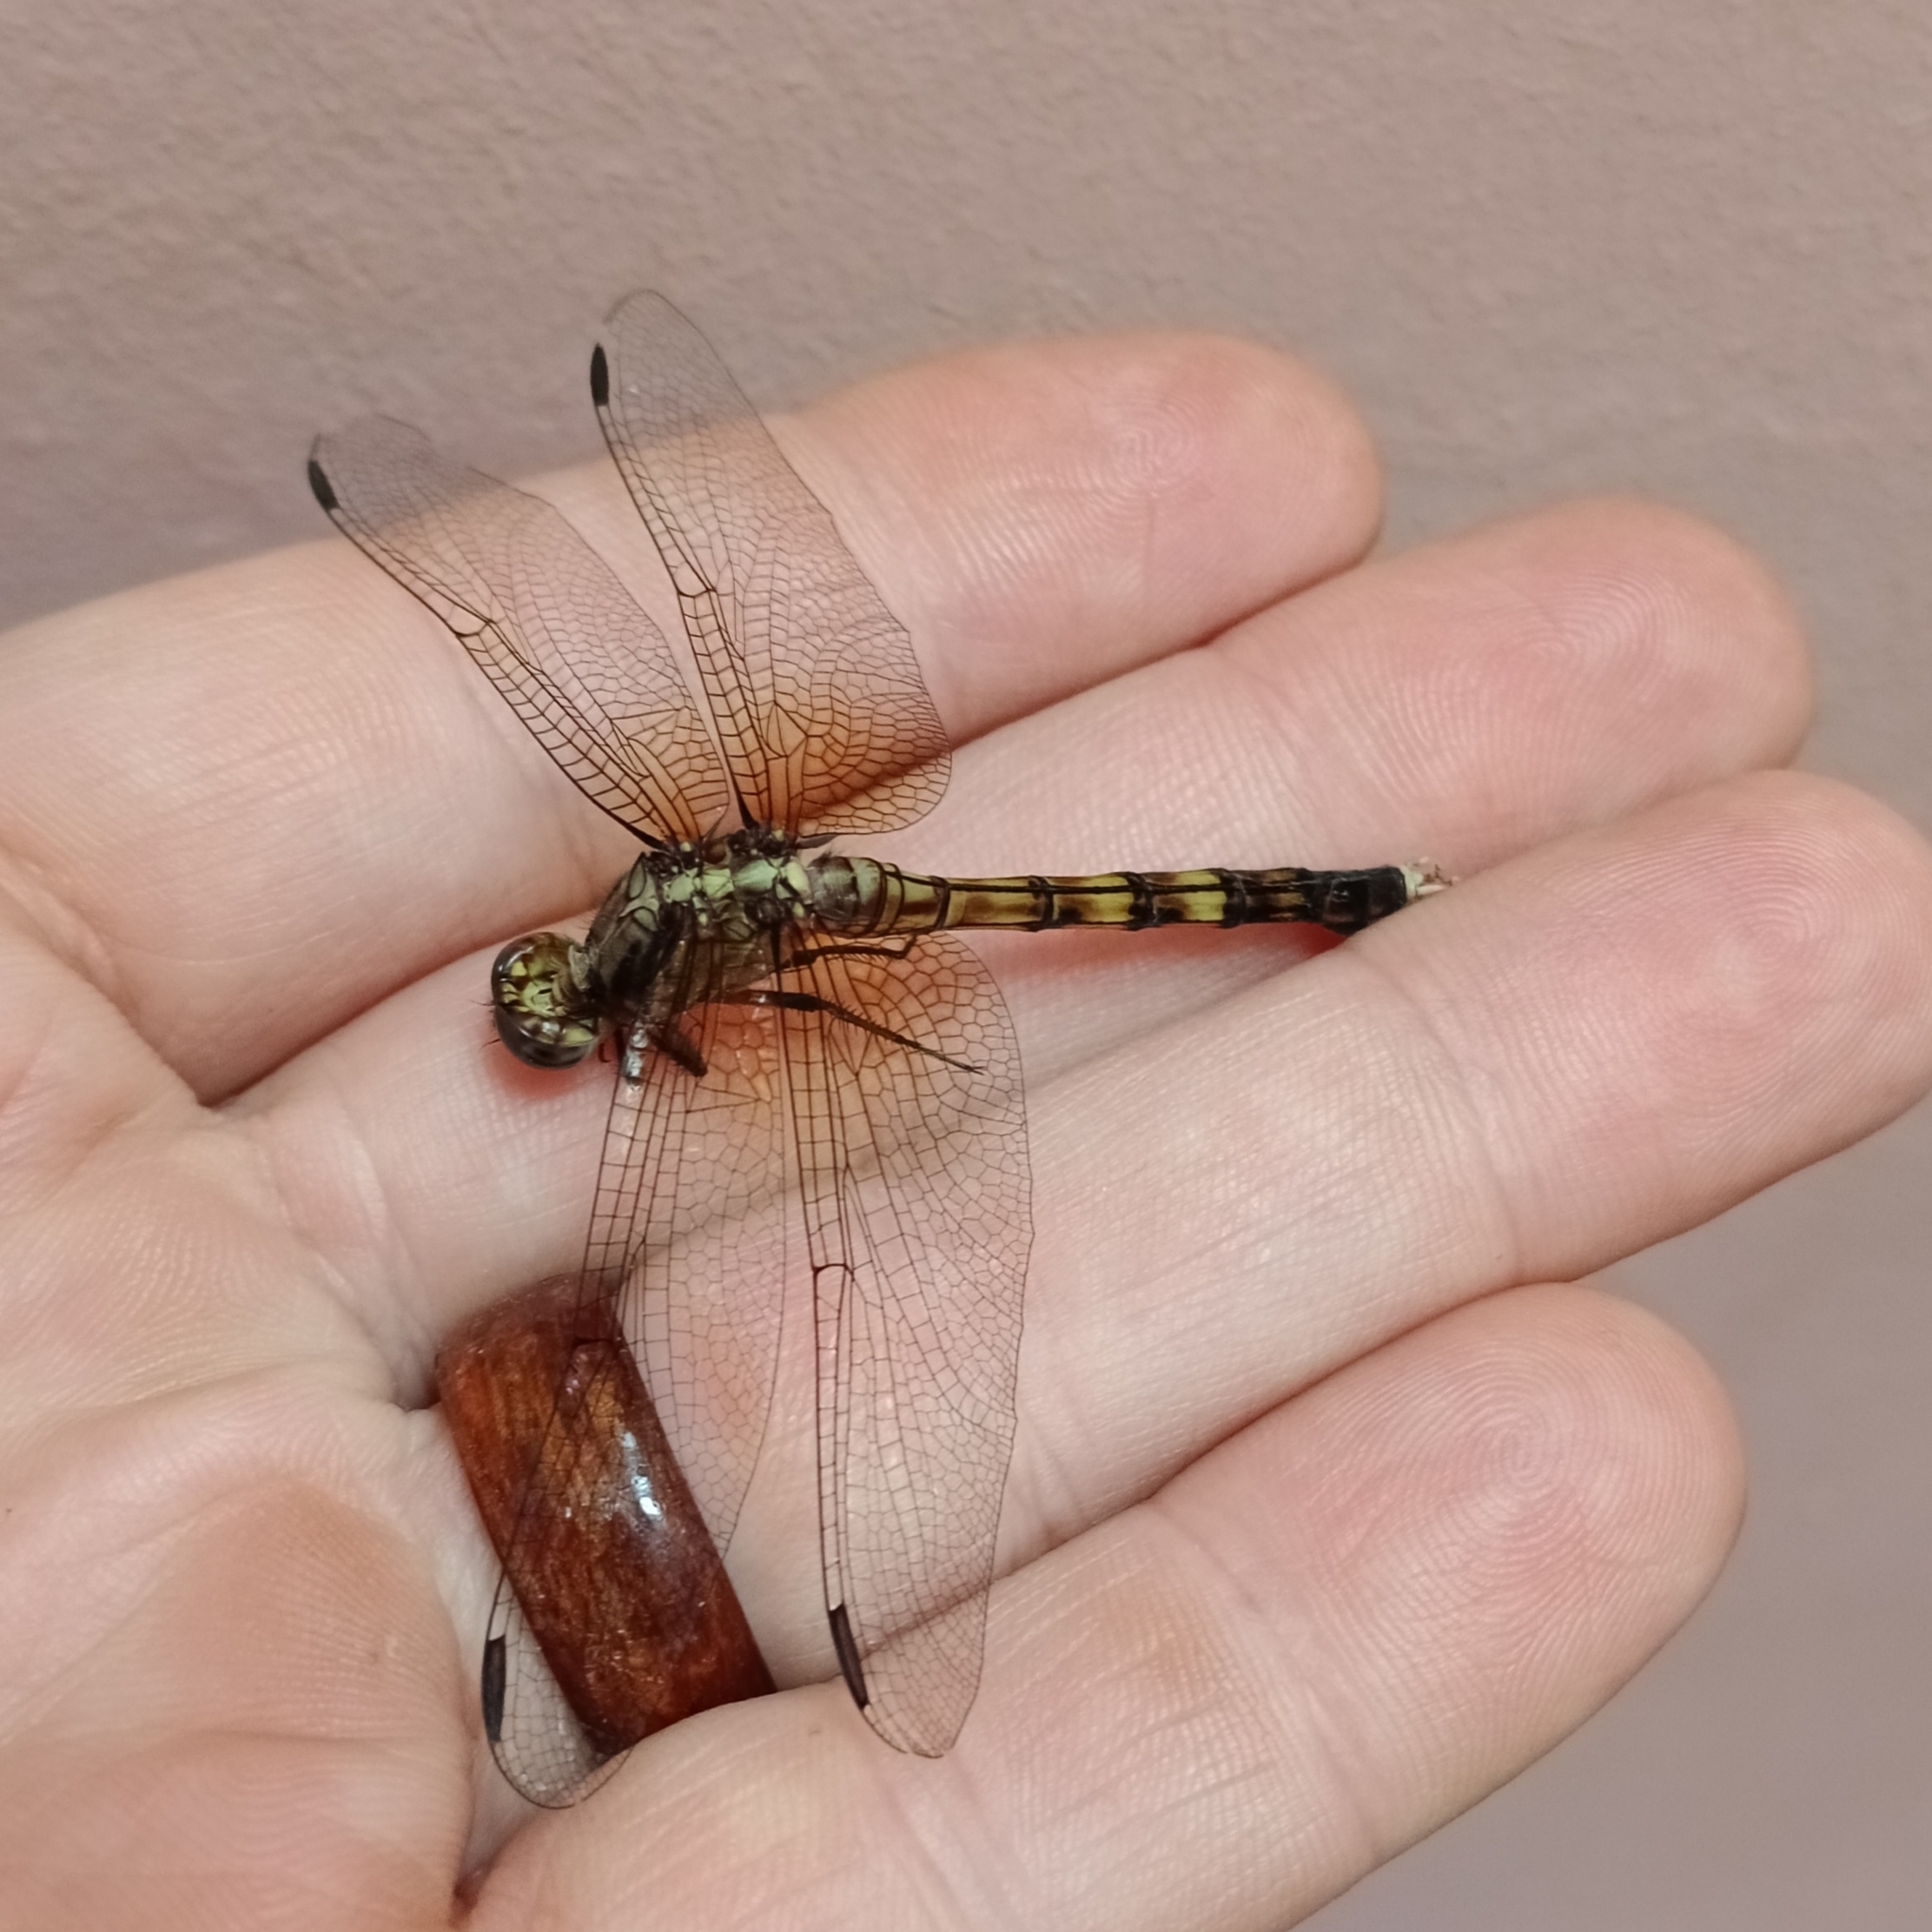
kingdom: Animalia
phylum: Arthropoda
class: Insecta
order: Odonata
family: Libellulidae
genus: Orthetrum
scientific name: Orthetrum julia
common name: Julia skimmer
